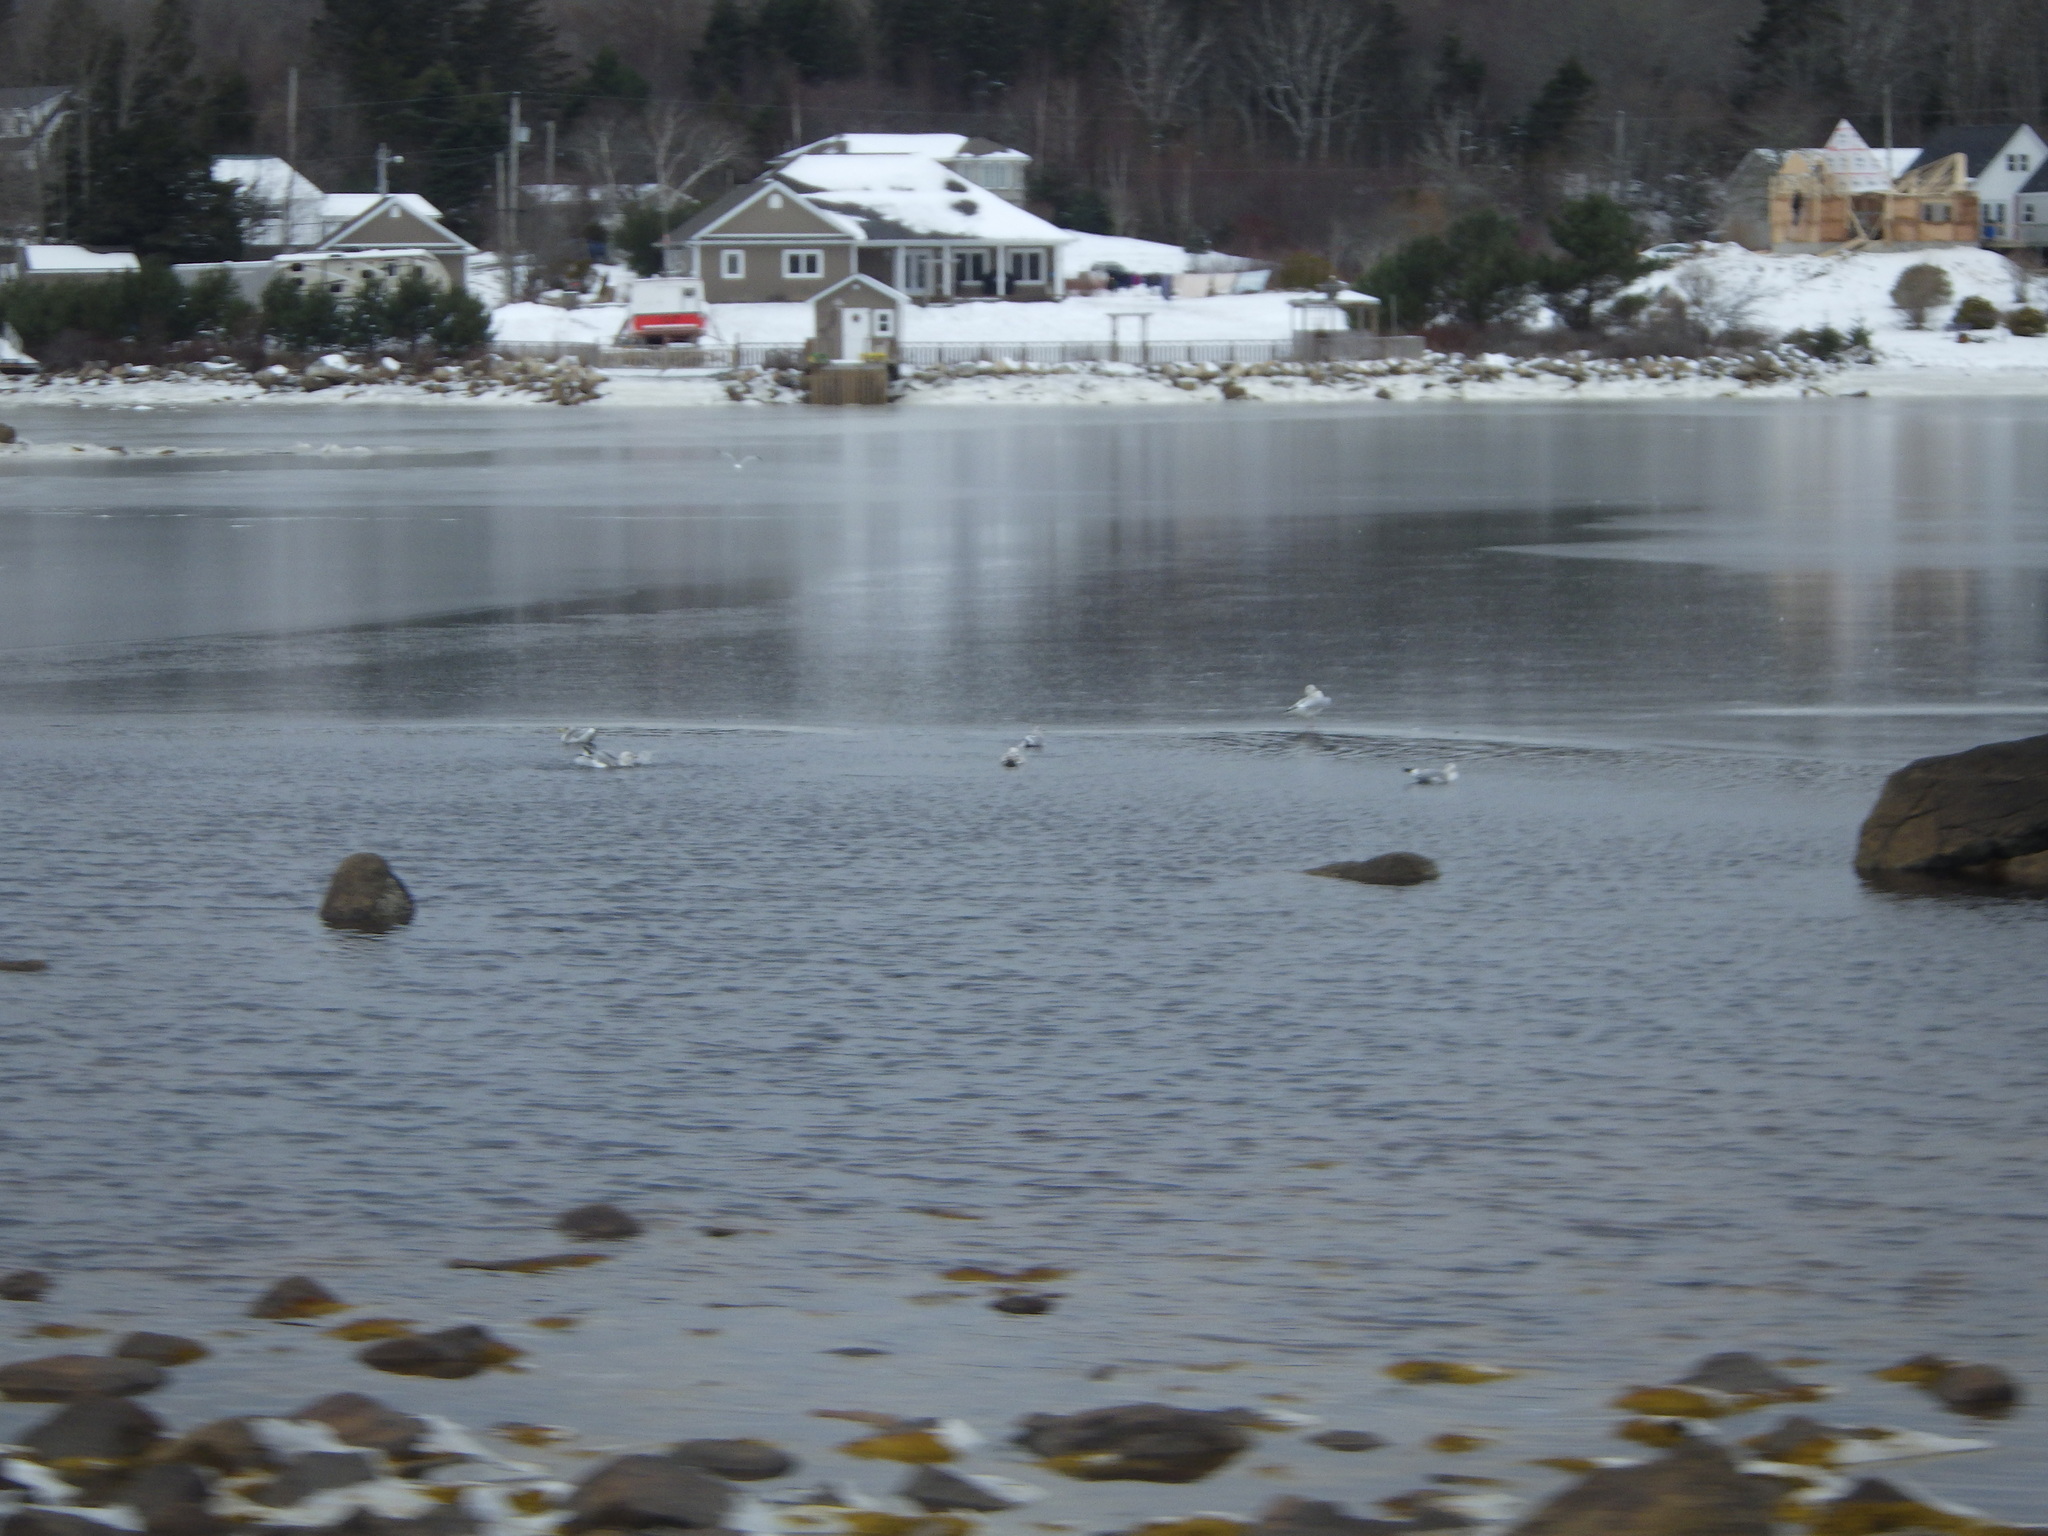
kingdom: Animalia
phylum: Chordata
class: Aves
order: Charadriiformes
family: Laridae
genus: Larus
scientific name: Larus argentatus
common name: Herring gull
